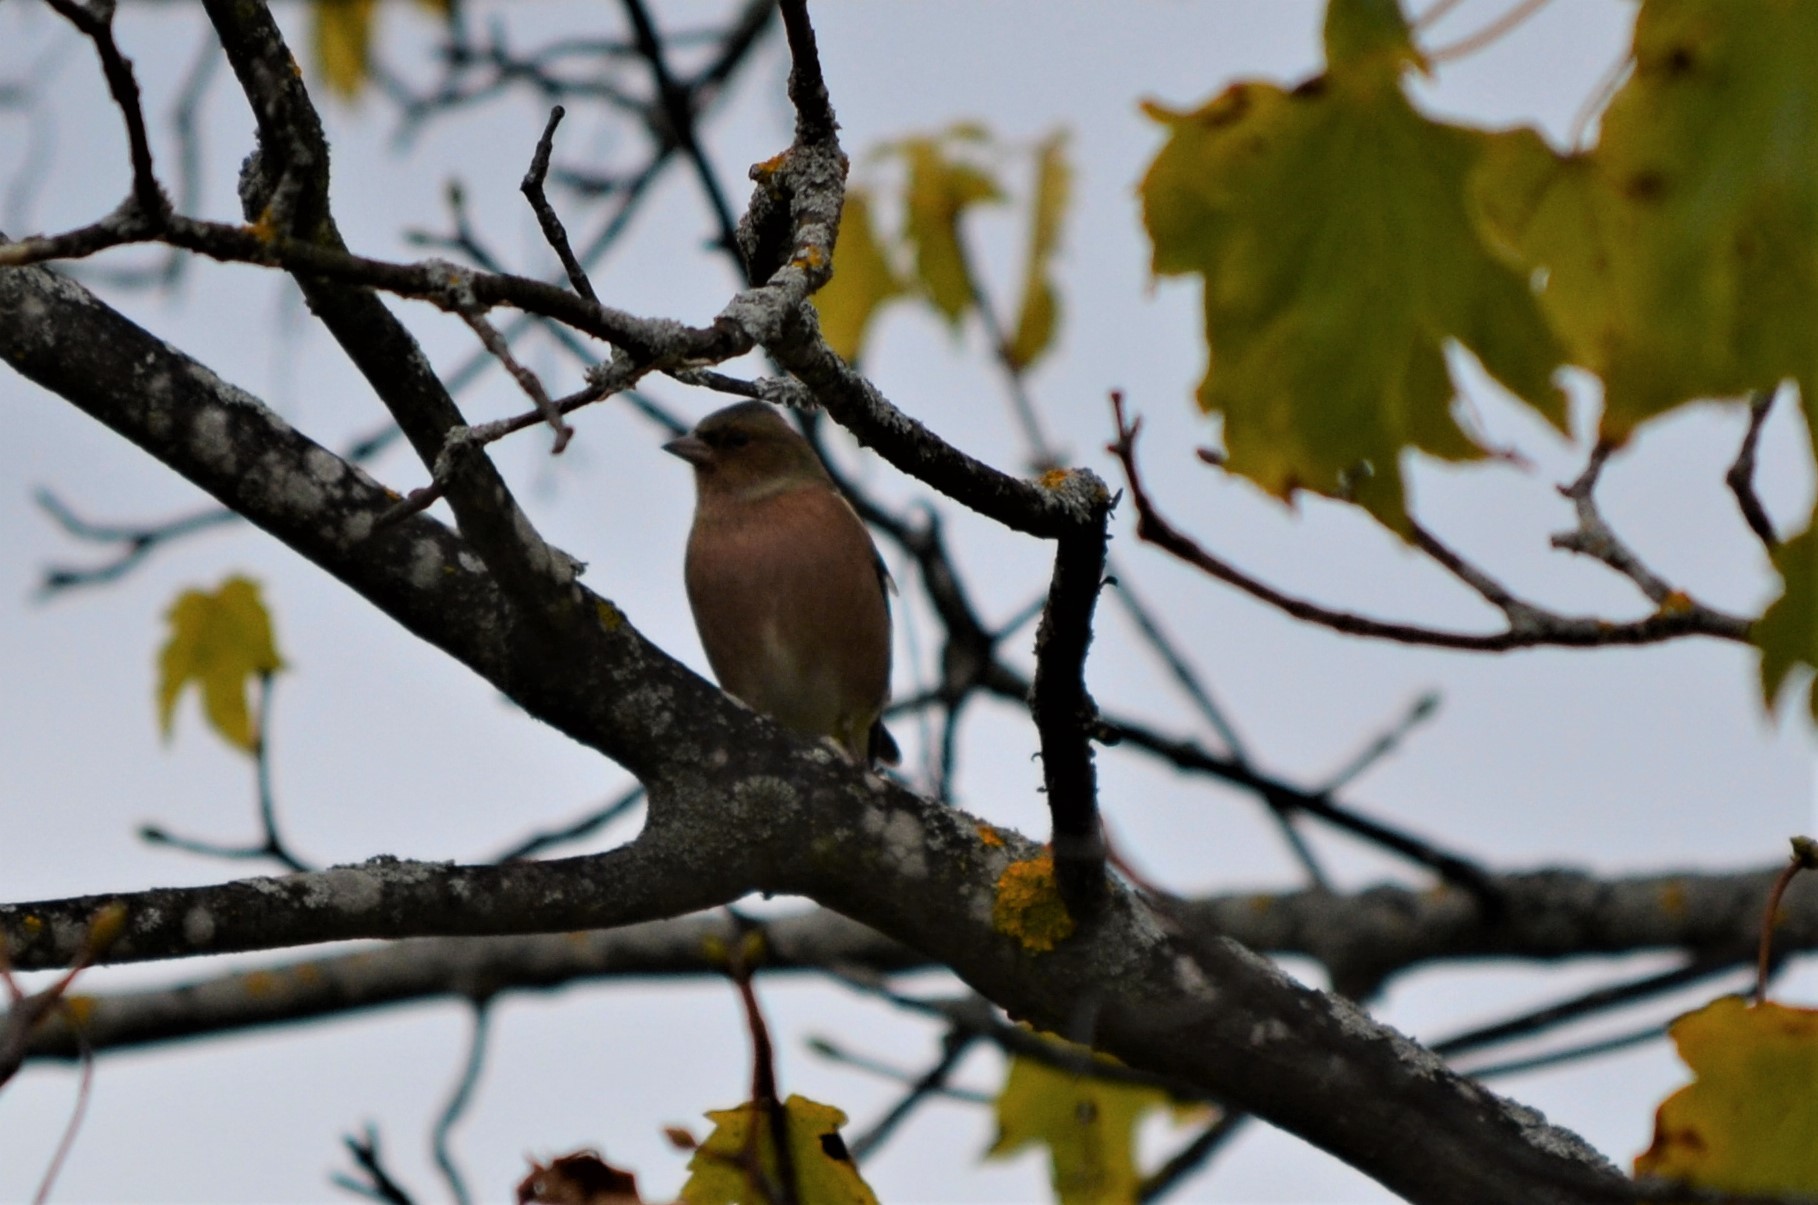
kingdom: Animalia
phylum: Chordata
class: Aves
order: Passeriformes
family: Fringillidae
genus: Fringilla
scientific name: Fringilla coelebs
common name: Common chaffinch
